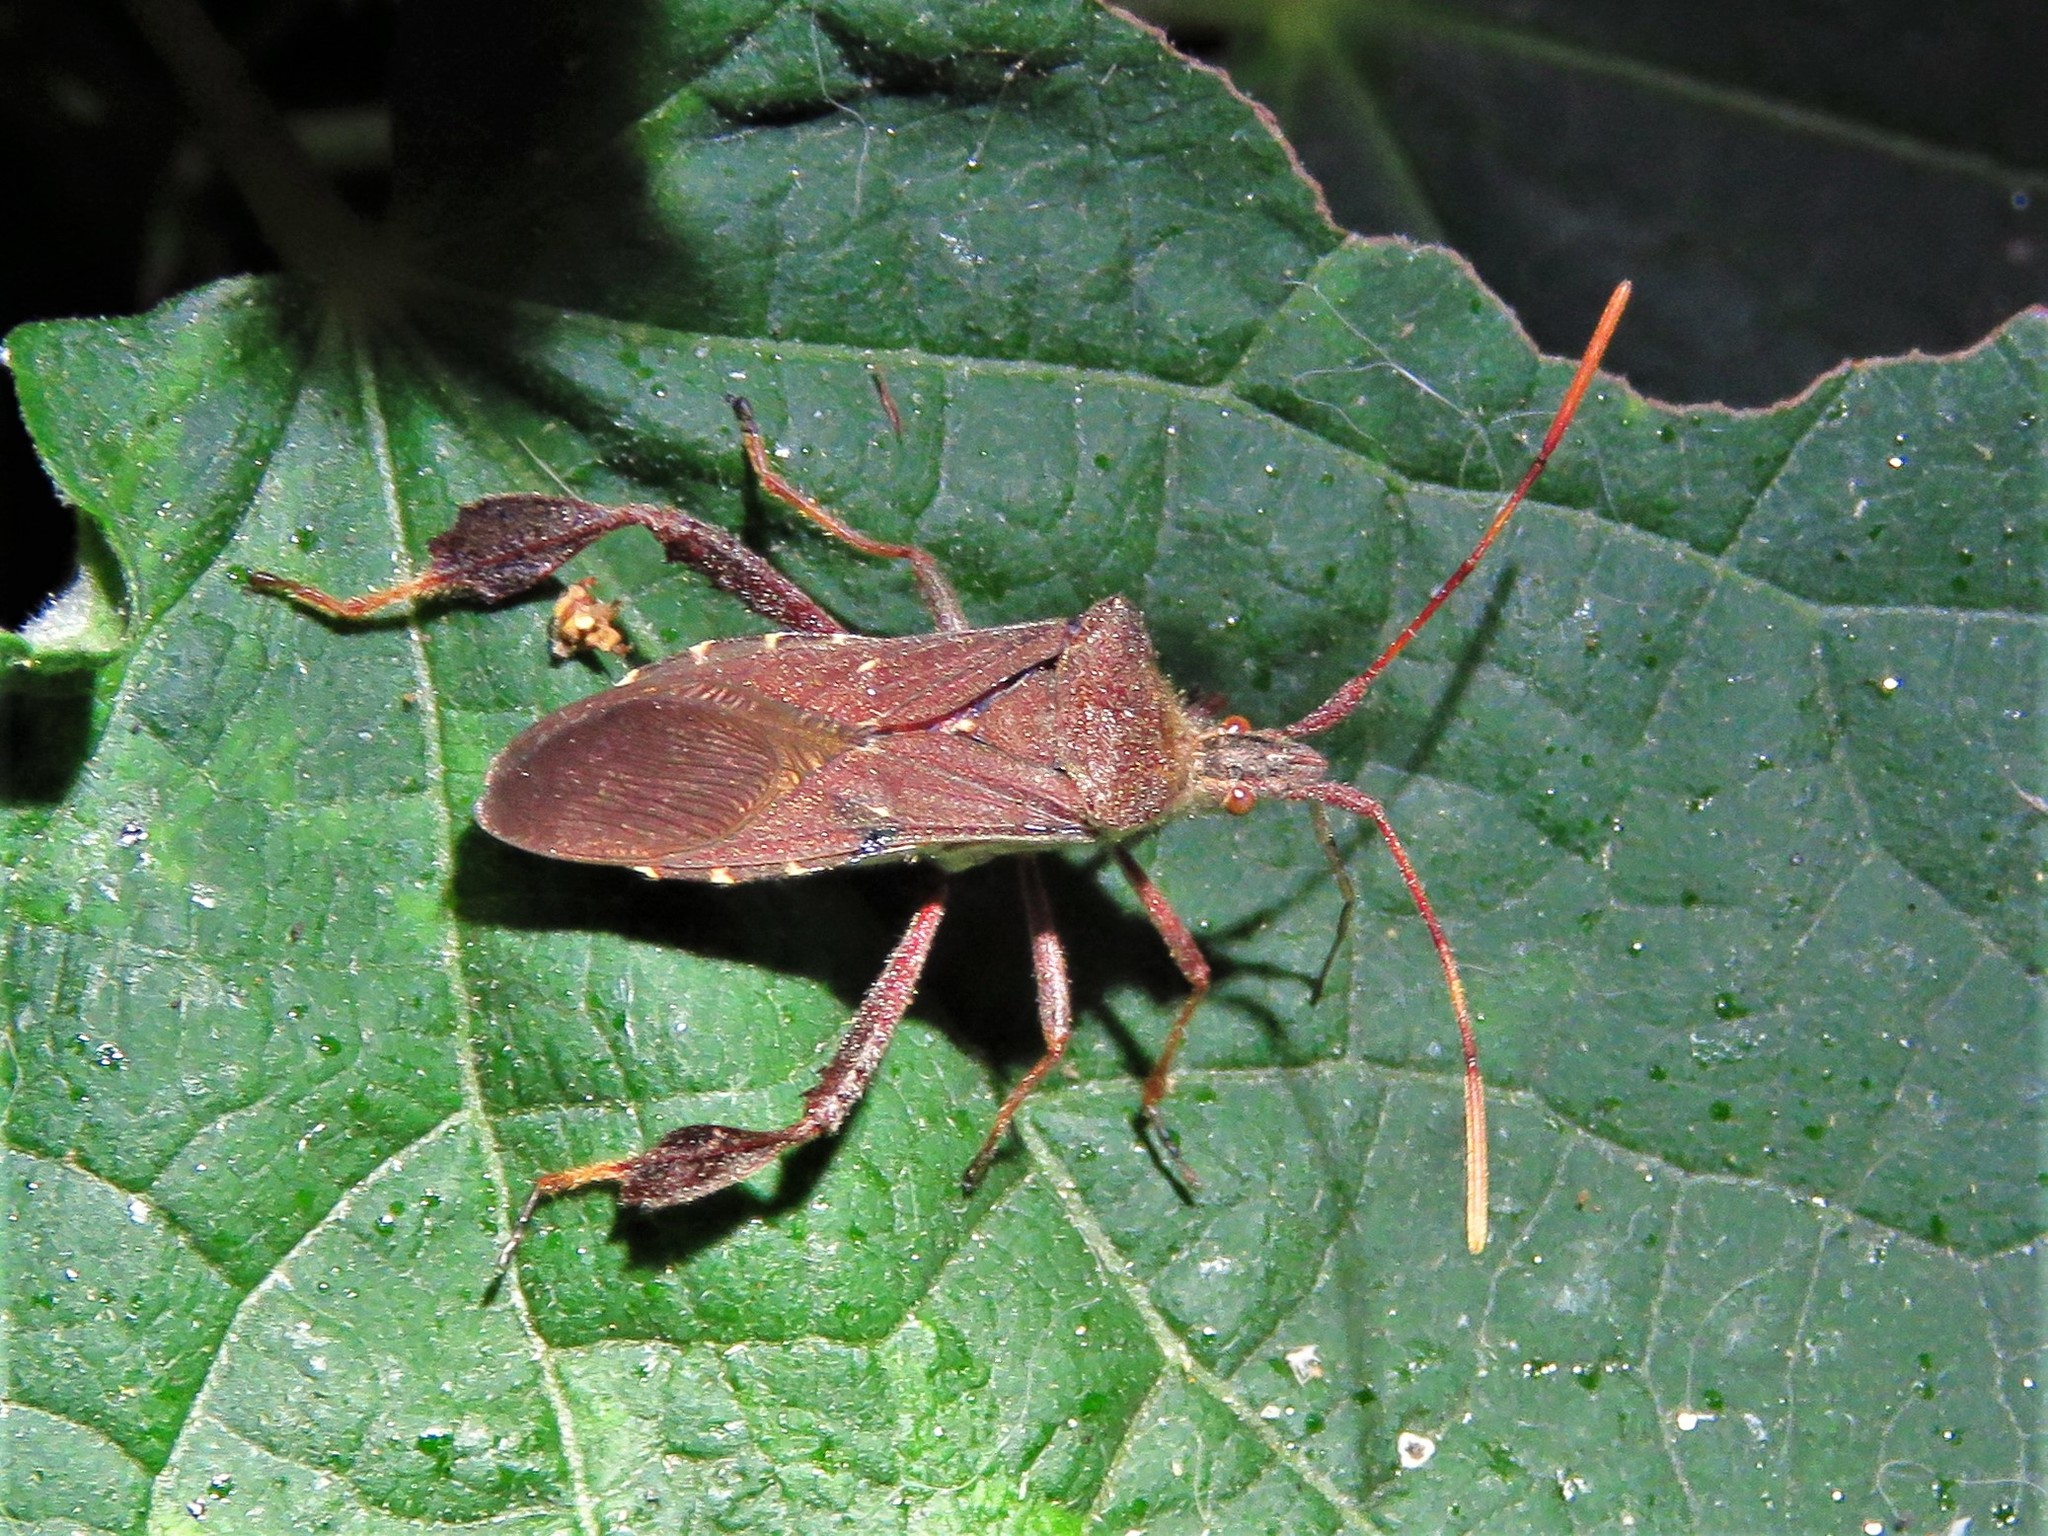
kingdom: Animalia
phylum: Arthropoda
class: Insecta
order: Hemiptera
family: Coreidae
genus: Leptoglossus
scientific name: Leptoglossus oppositus
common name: Northern leaf-footed bug
